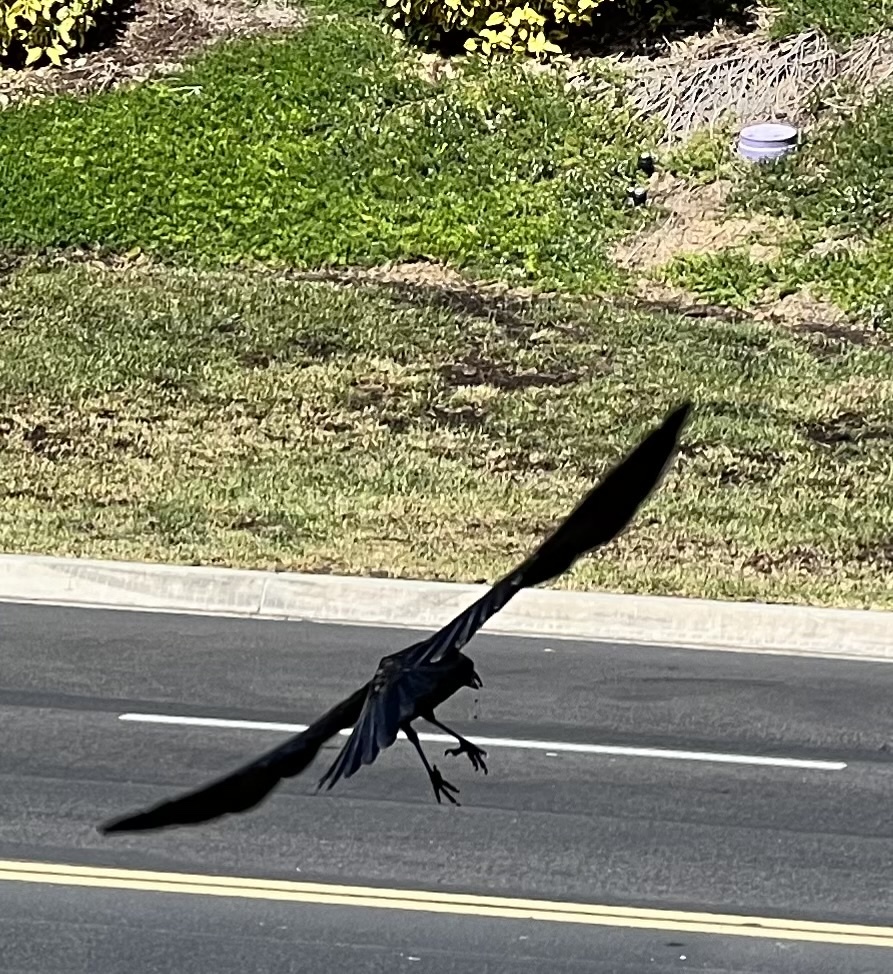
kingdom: Animalia
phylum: Chordata
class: Aves
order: Passeriformes
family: Corvidae
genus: Corvus
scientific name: Corvus brachyrhynchos
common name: American crow
